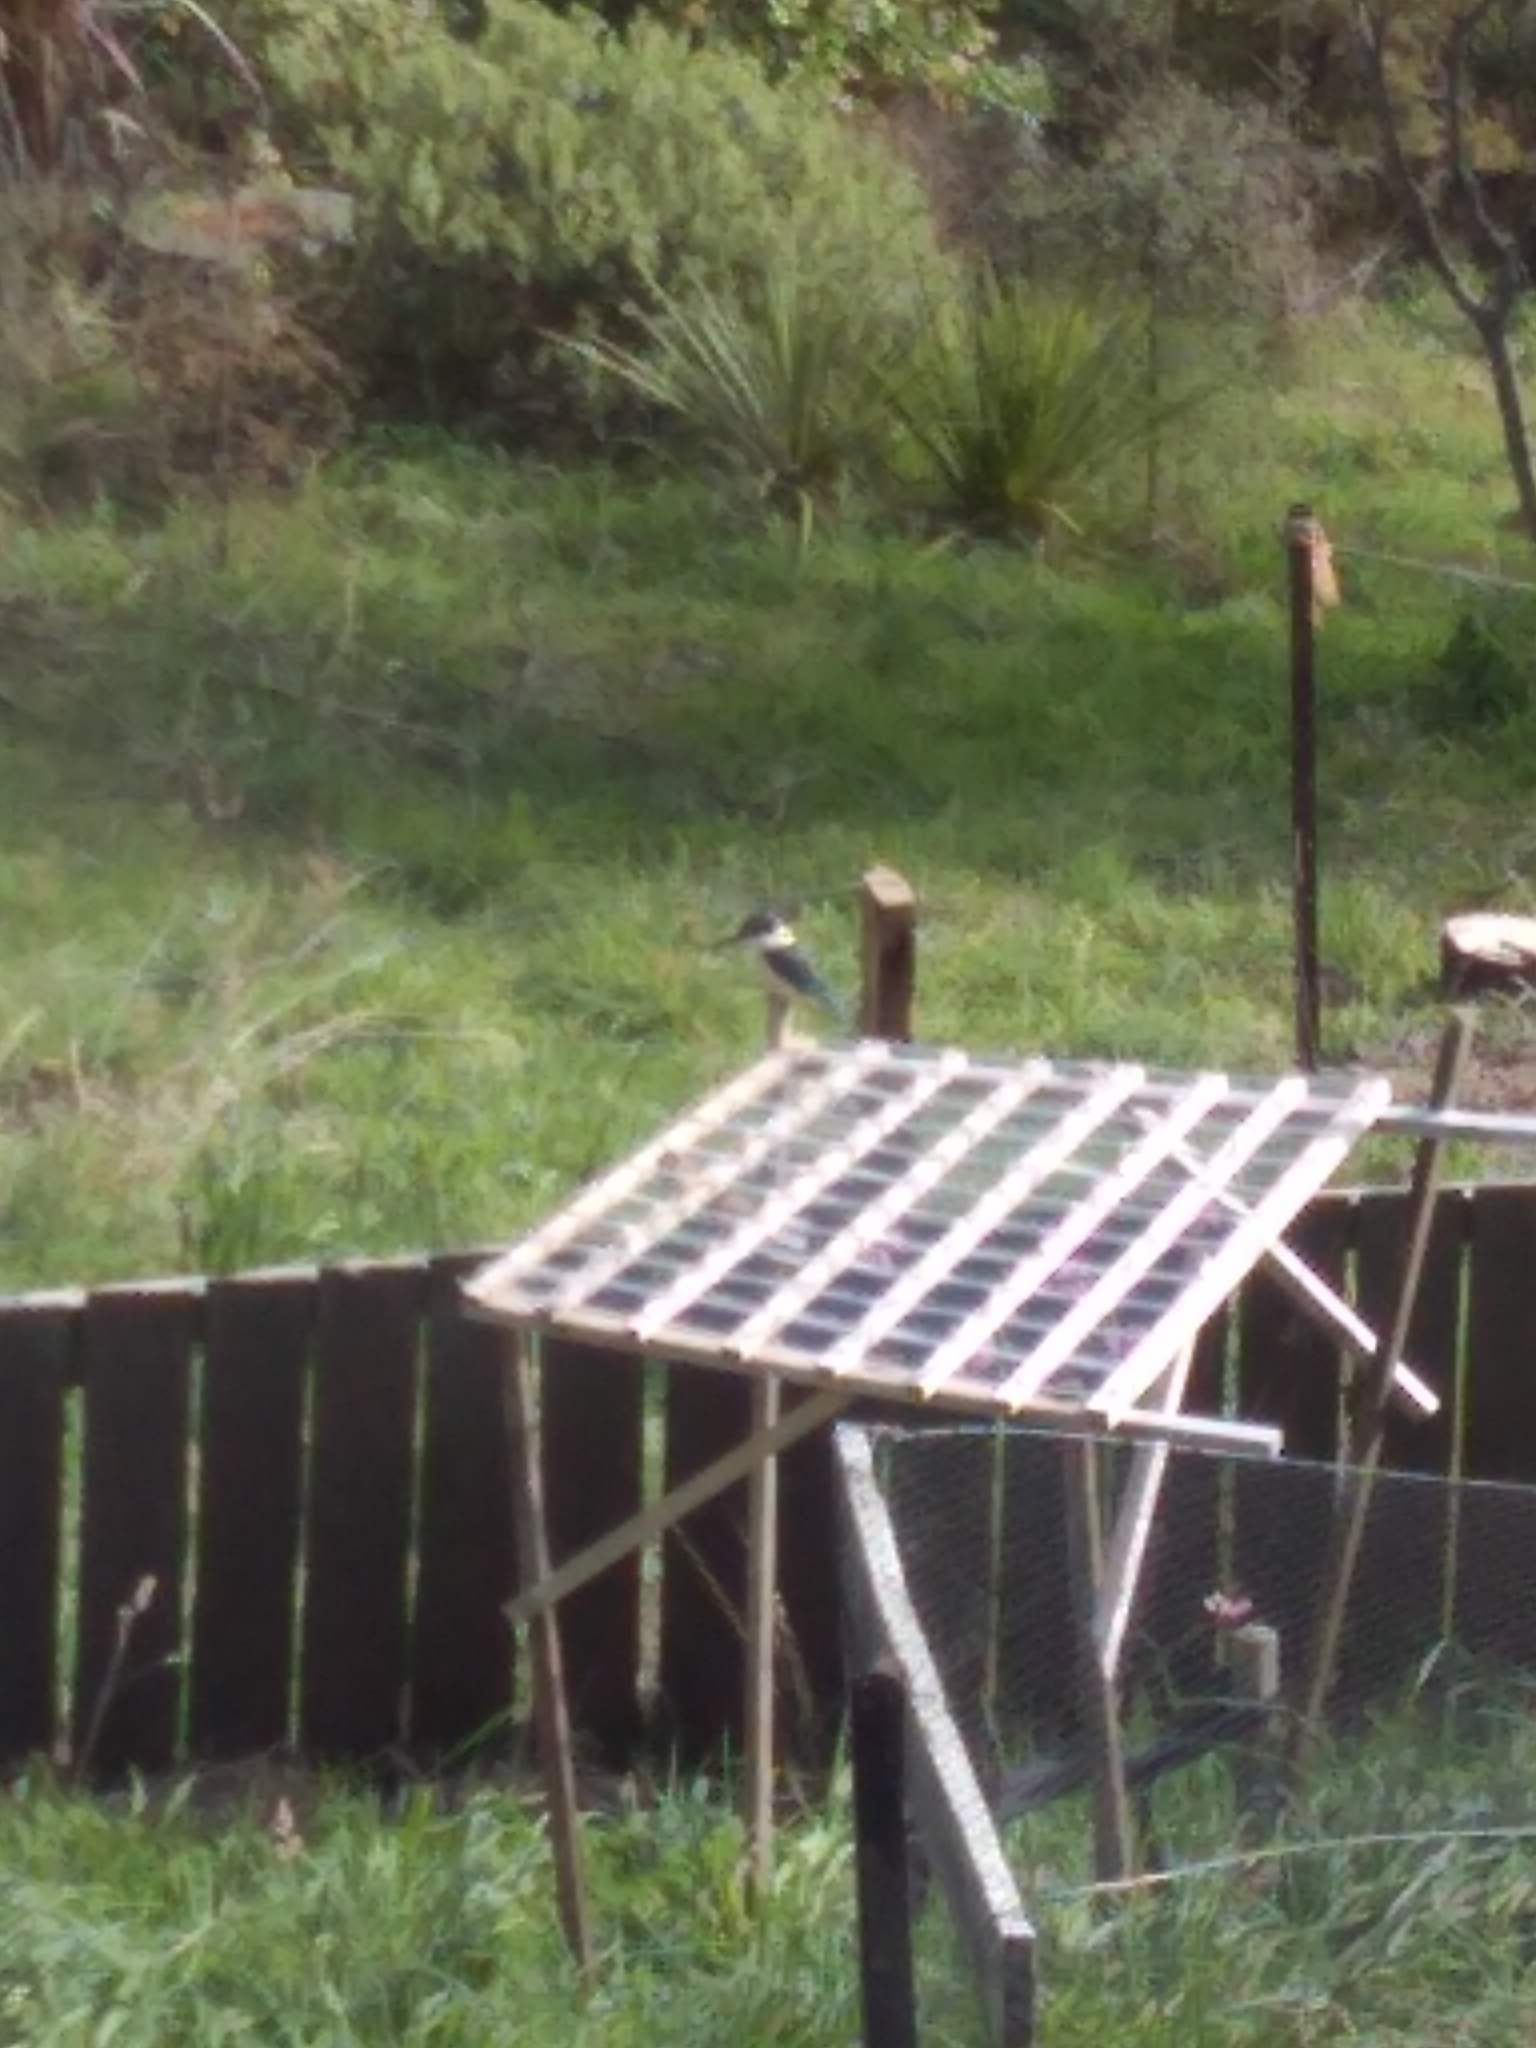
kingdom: Animalia
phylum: Chordata
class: Aves
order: Coraciiformes
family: Alcedinidae
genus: Todiramphus
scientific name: Todiramphus sanctus
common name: Sacred kingfisher
